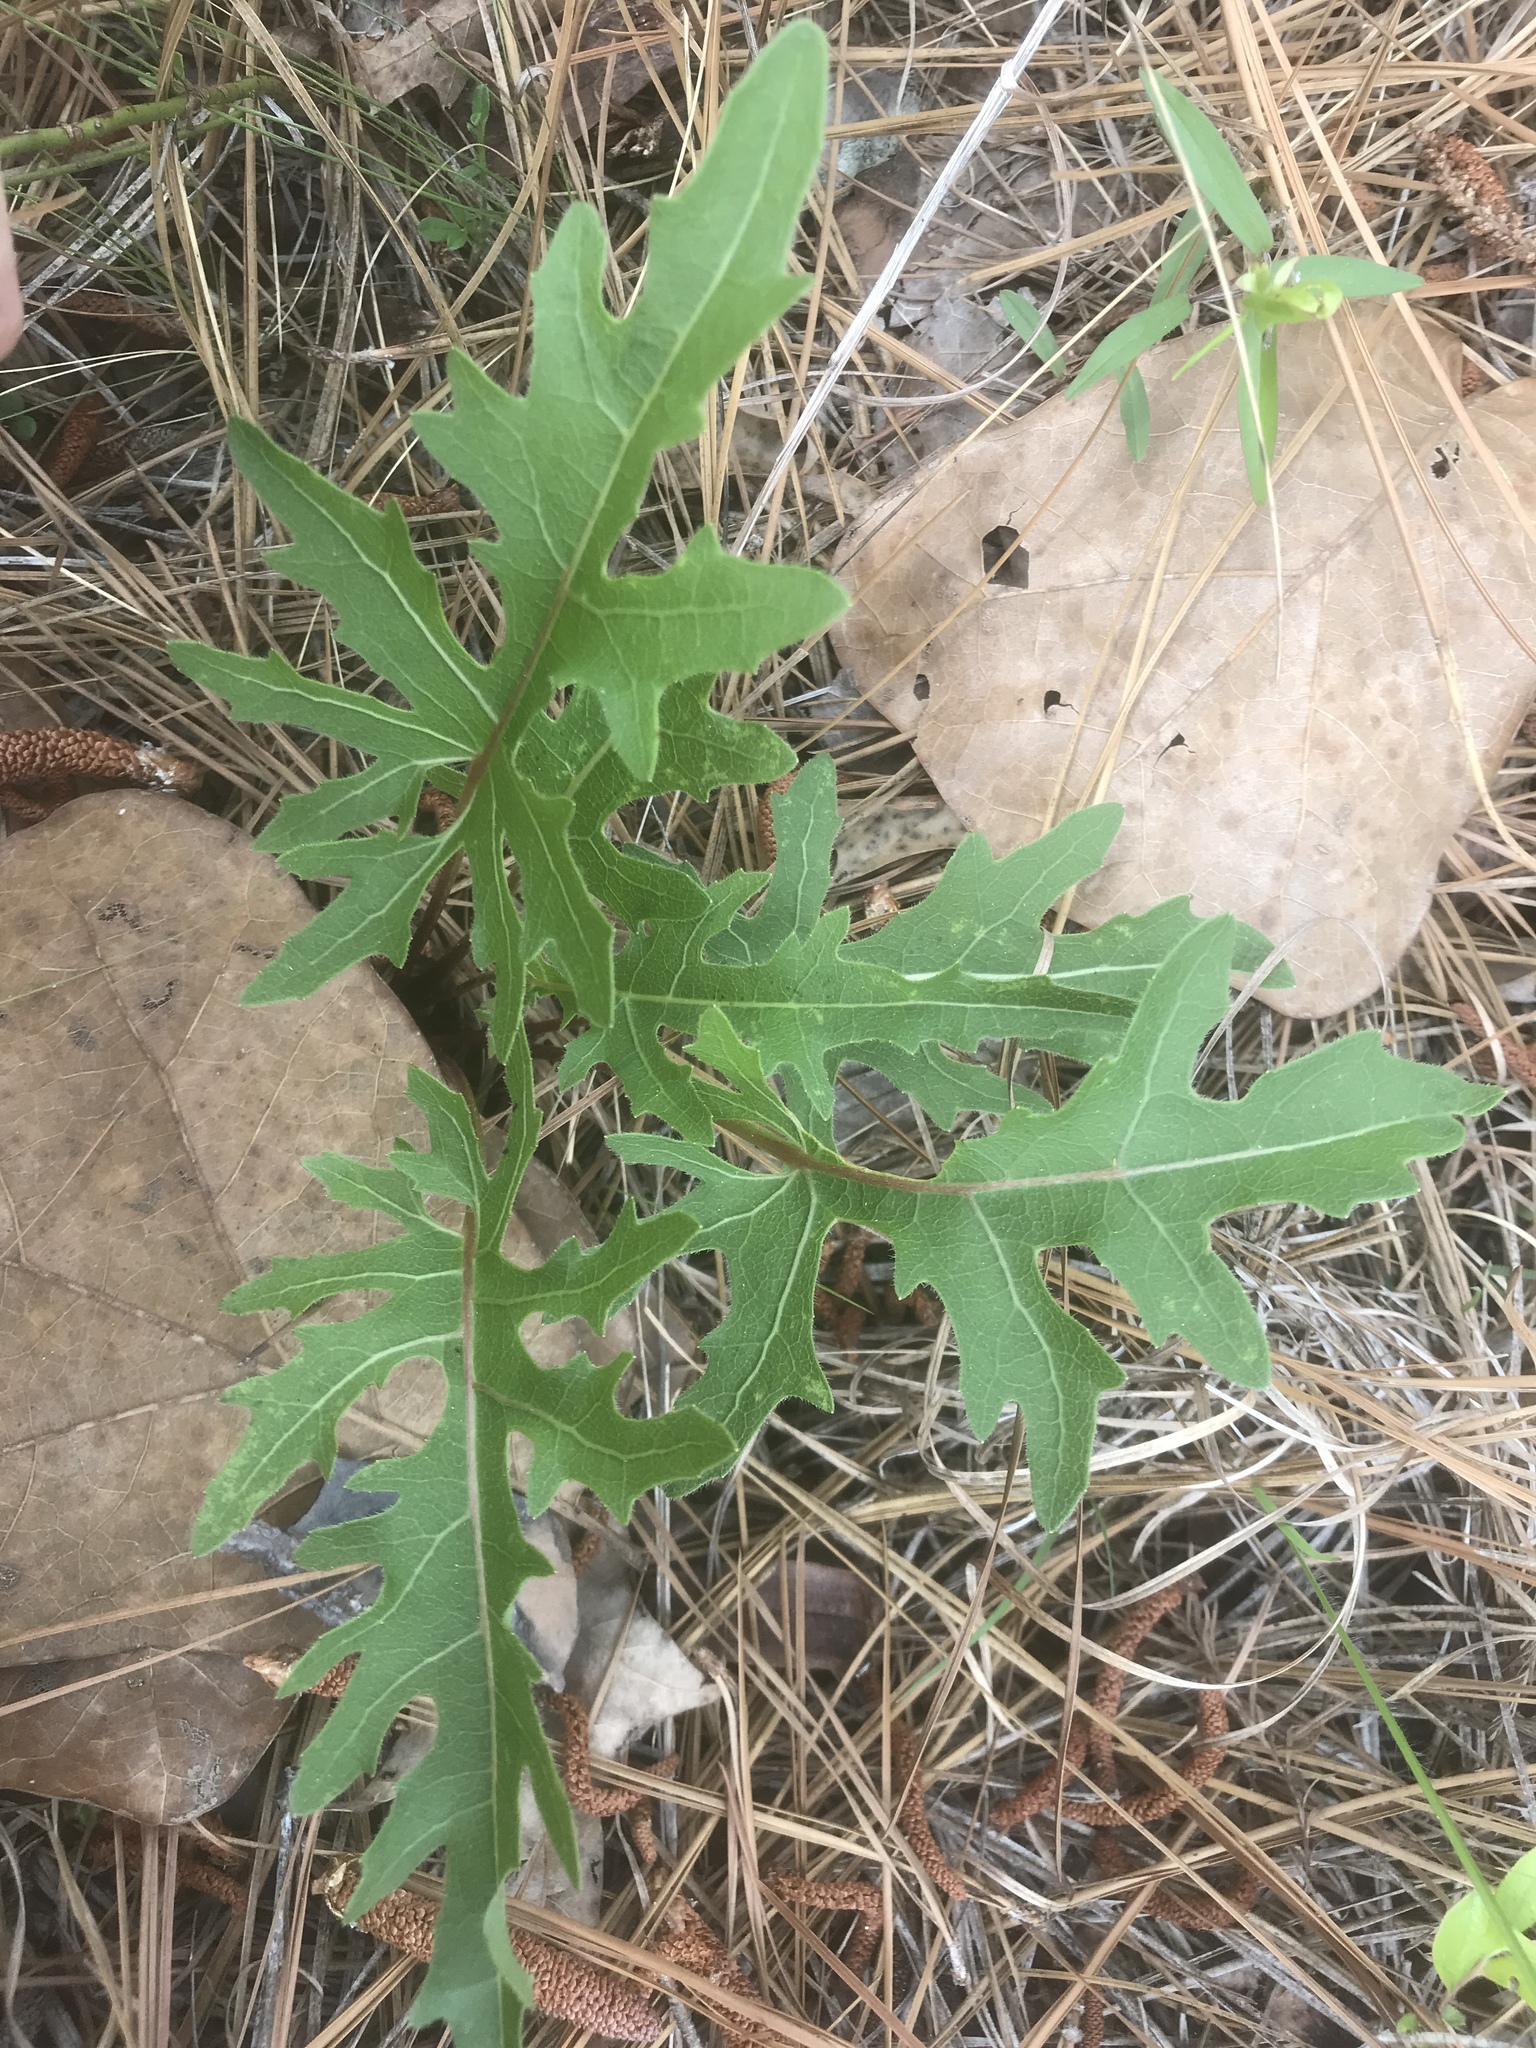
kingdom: Plantae
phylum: Tracheophyta
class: Magnoliopsida
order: Asterales
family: Asteraceae
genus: Silphium
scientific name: Silphium compositum
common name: Lesser basal-leaf rosinweed
